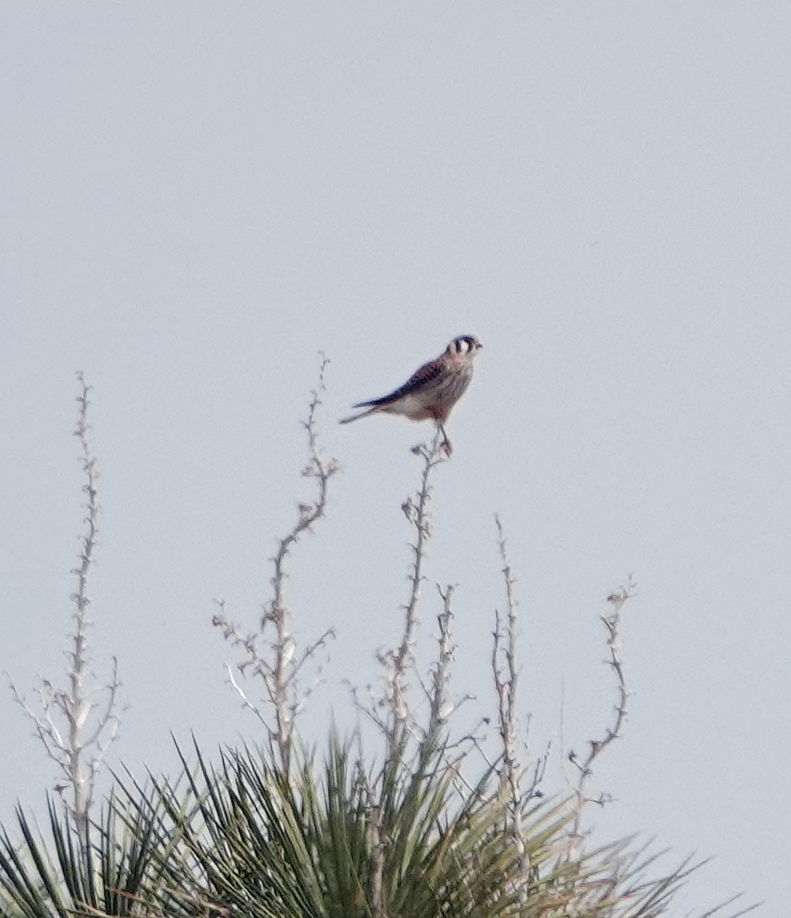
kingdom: Animalia
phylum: Chordata
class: Aves
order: Falconiformes
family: Falconidae
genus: Falco
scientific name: Falco sparverius
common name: American kestrel
